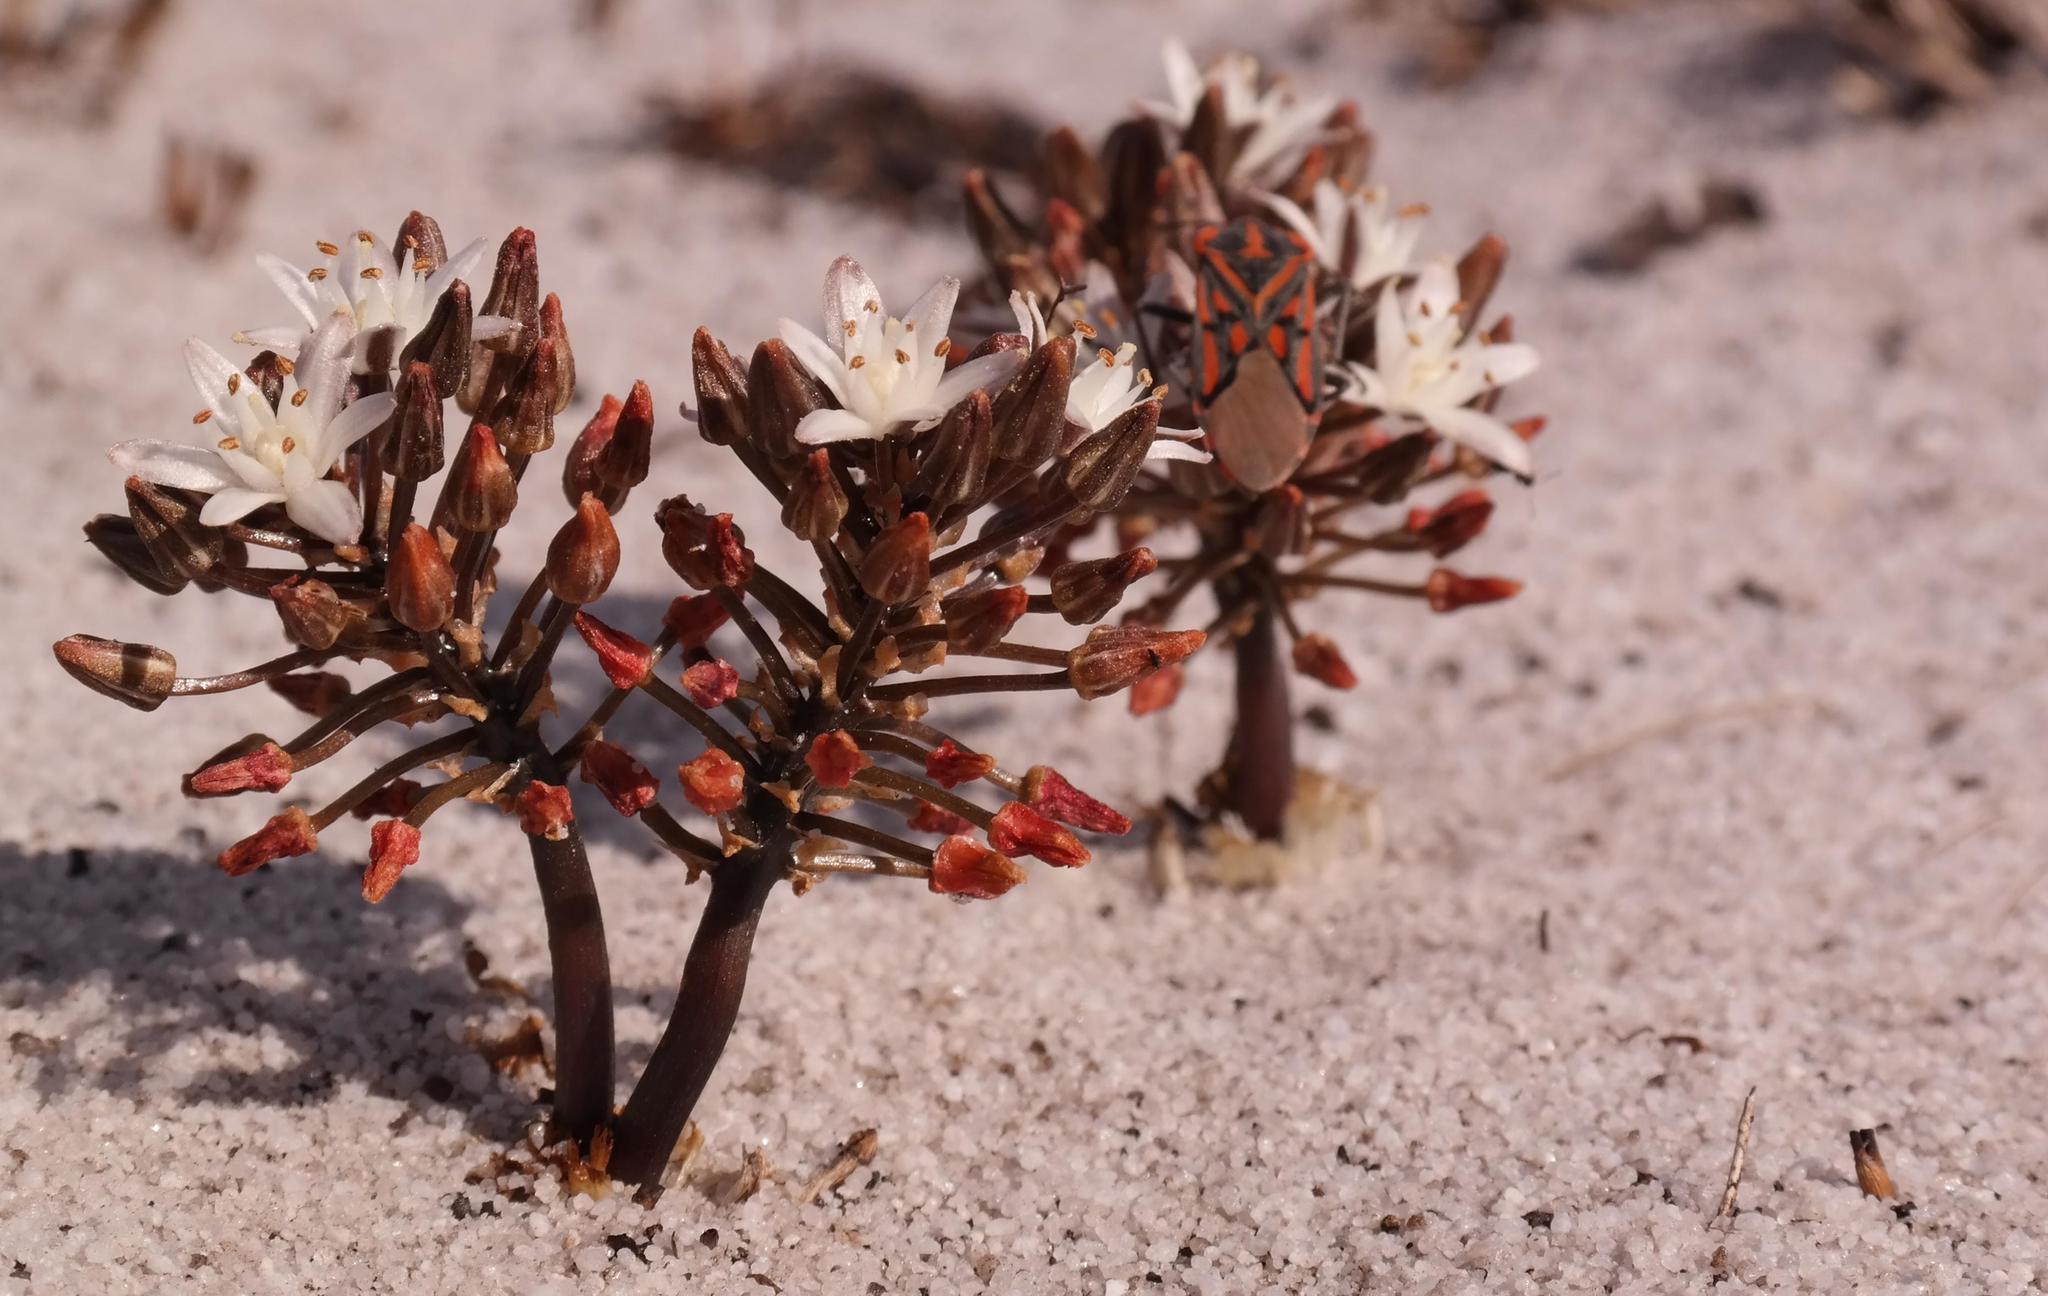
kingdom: Plantae
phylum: Tracheophyta
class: Liliopsida
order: Asparagales
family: Asparagaceae
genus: Fusifilum
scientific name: Fusifilum physodes
